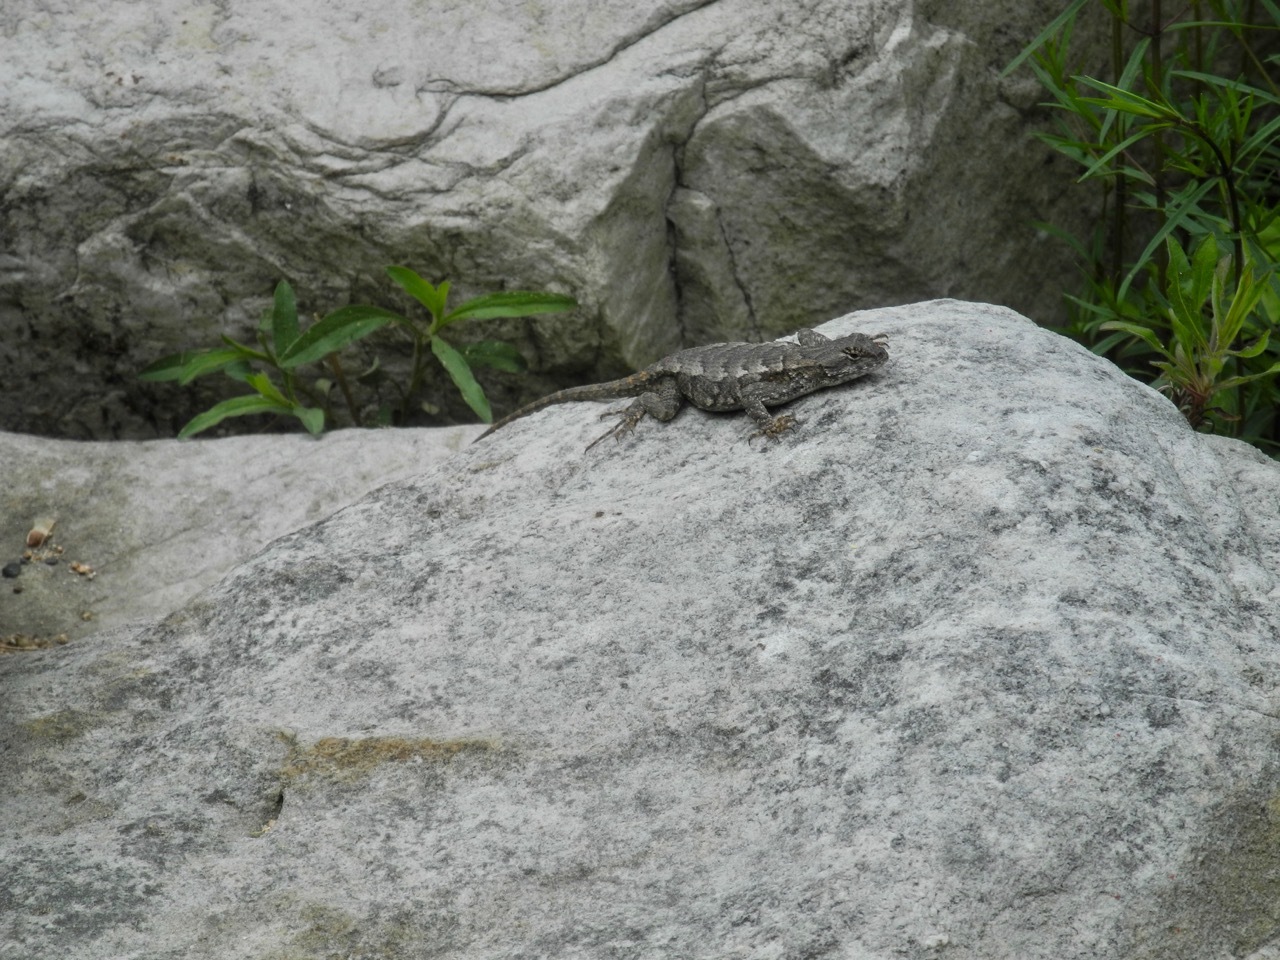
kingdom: Animalia
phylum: Chordata
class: Squamata
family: Phrynosomatidae
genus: Sceloporus
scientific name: Sceloporus undulatus
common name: Eastern fence lizard
